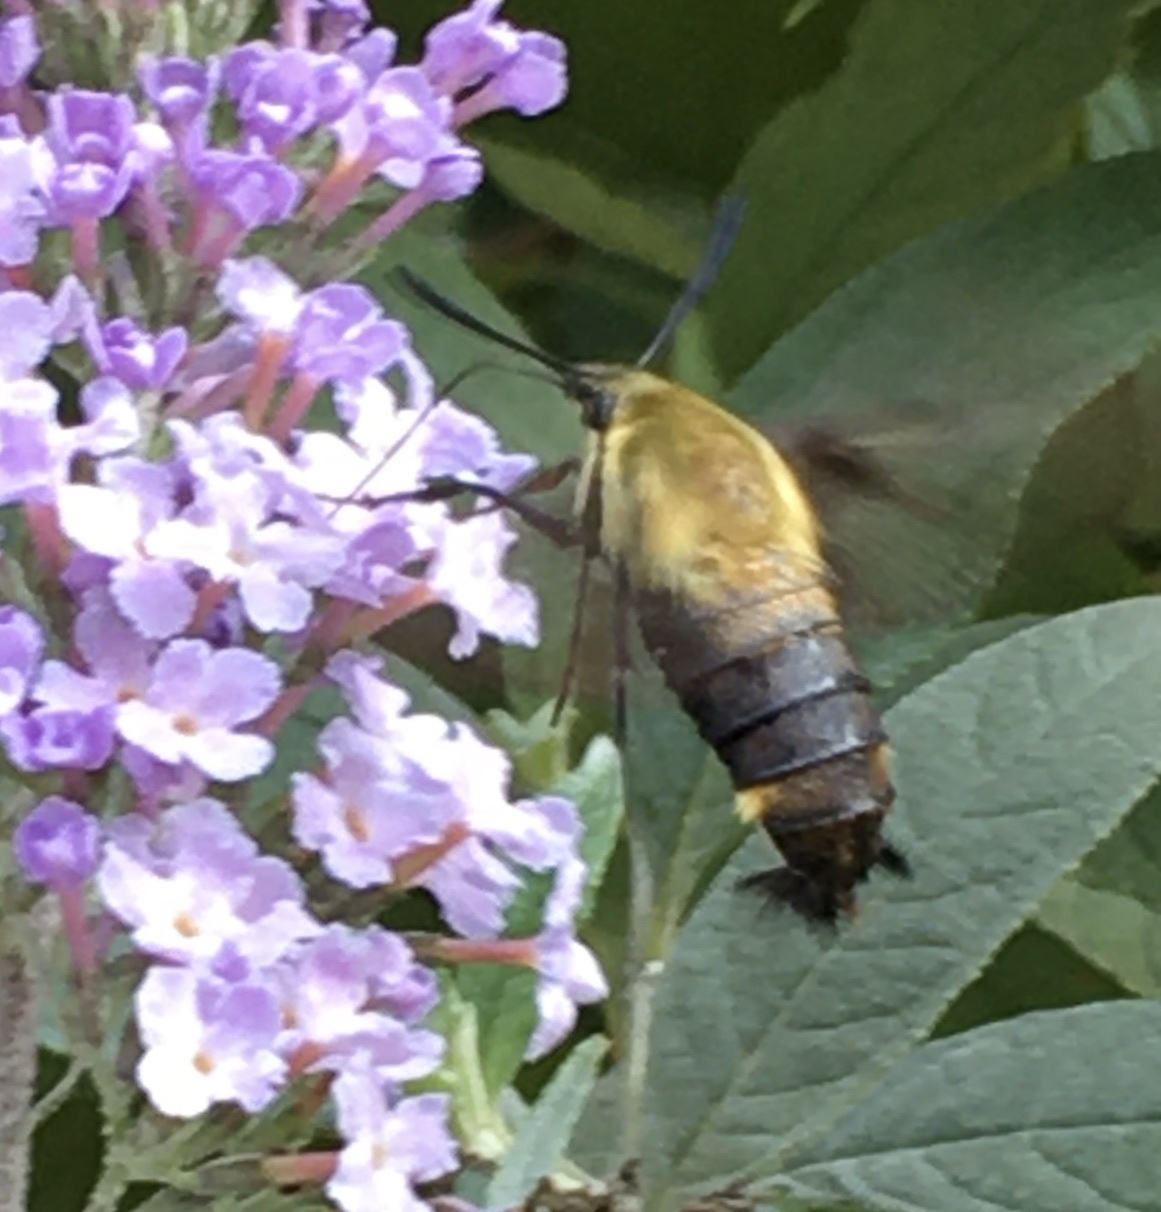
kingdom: Animalia
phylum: Arthropoda
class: Insecta
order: Lepidoptera
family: Sphingidae
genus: Hemaris
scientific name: Hemaris diffinis
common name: Bumblebee moth
